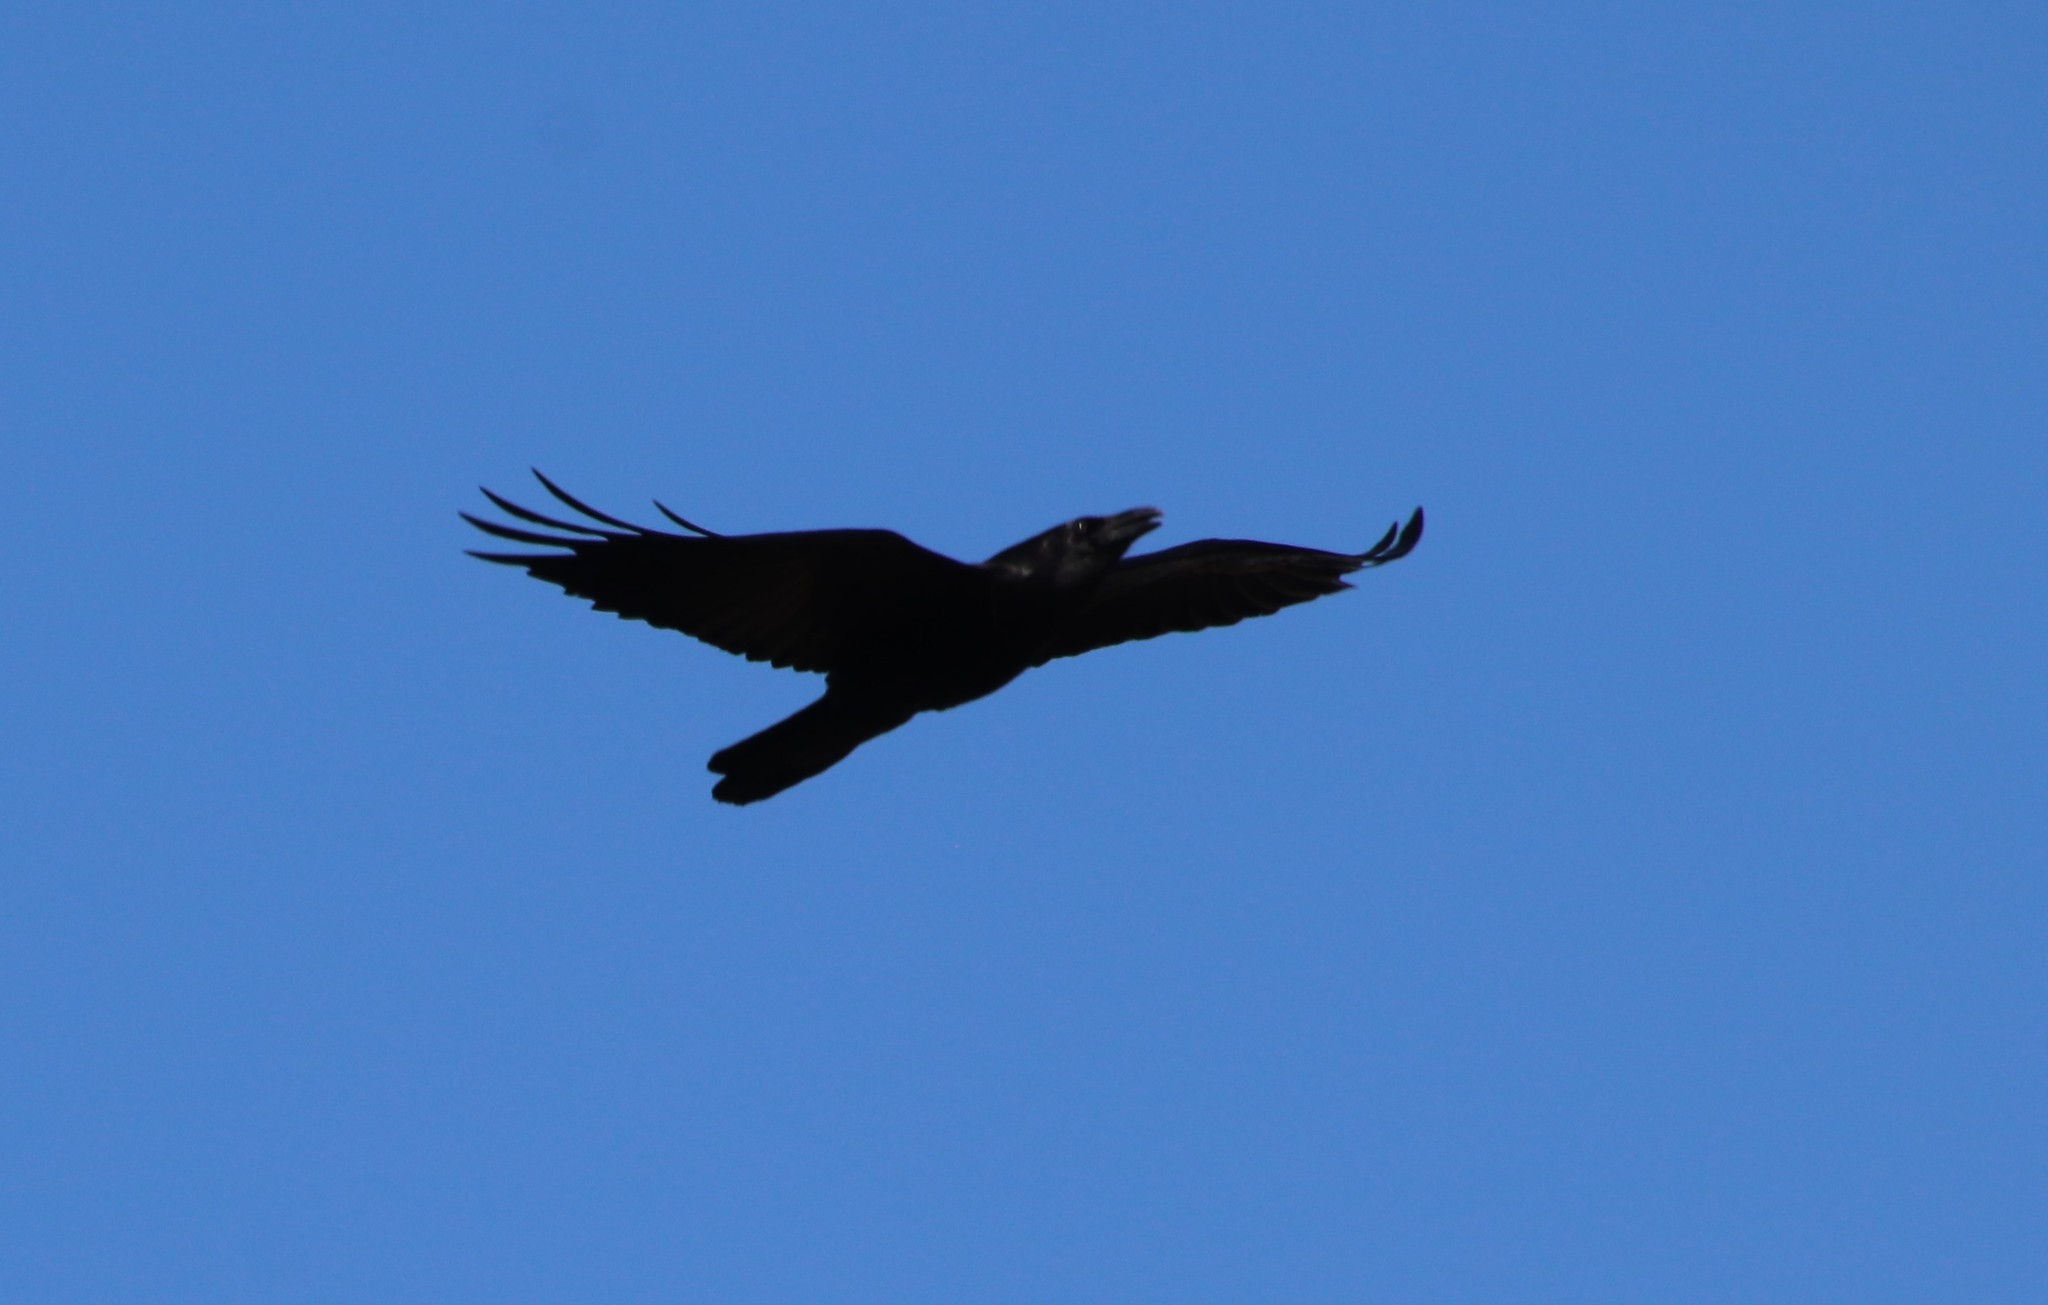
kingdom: Animalia
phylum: Chordata
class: Aves
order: Passeriformes
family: Corvidae
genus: Corvus
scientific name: Corvus corax
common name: Common raven
